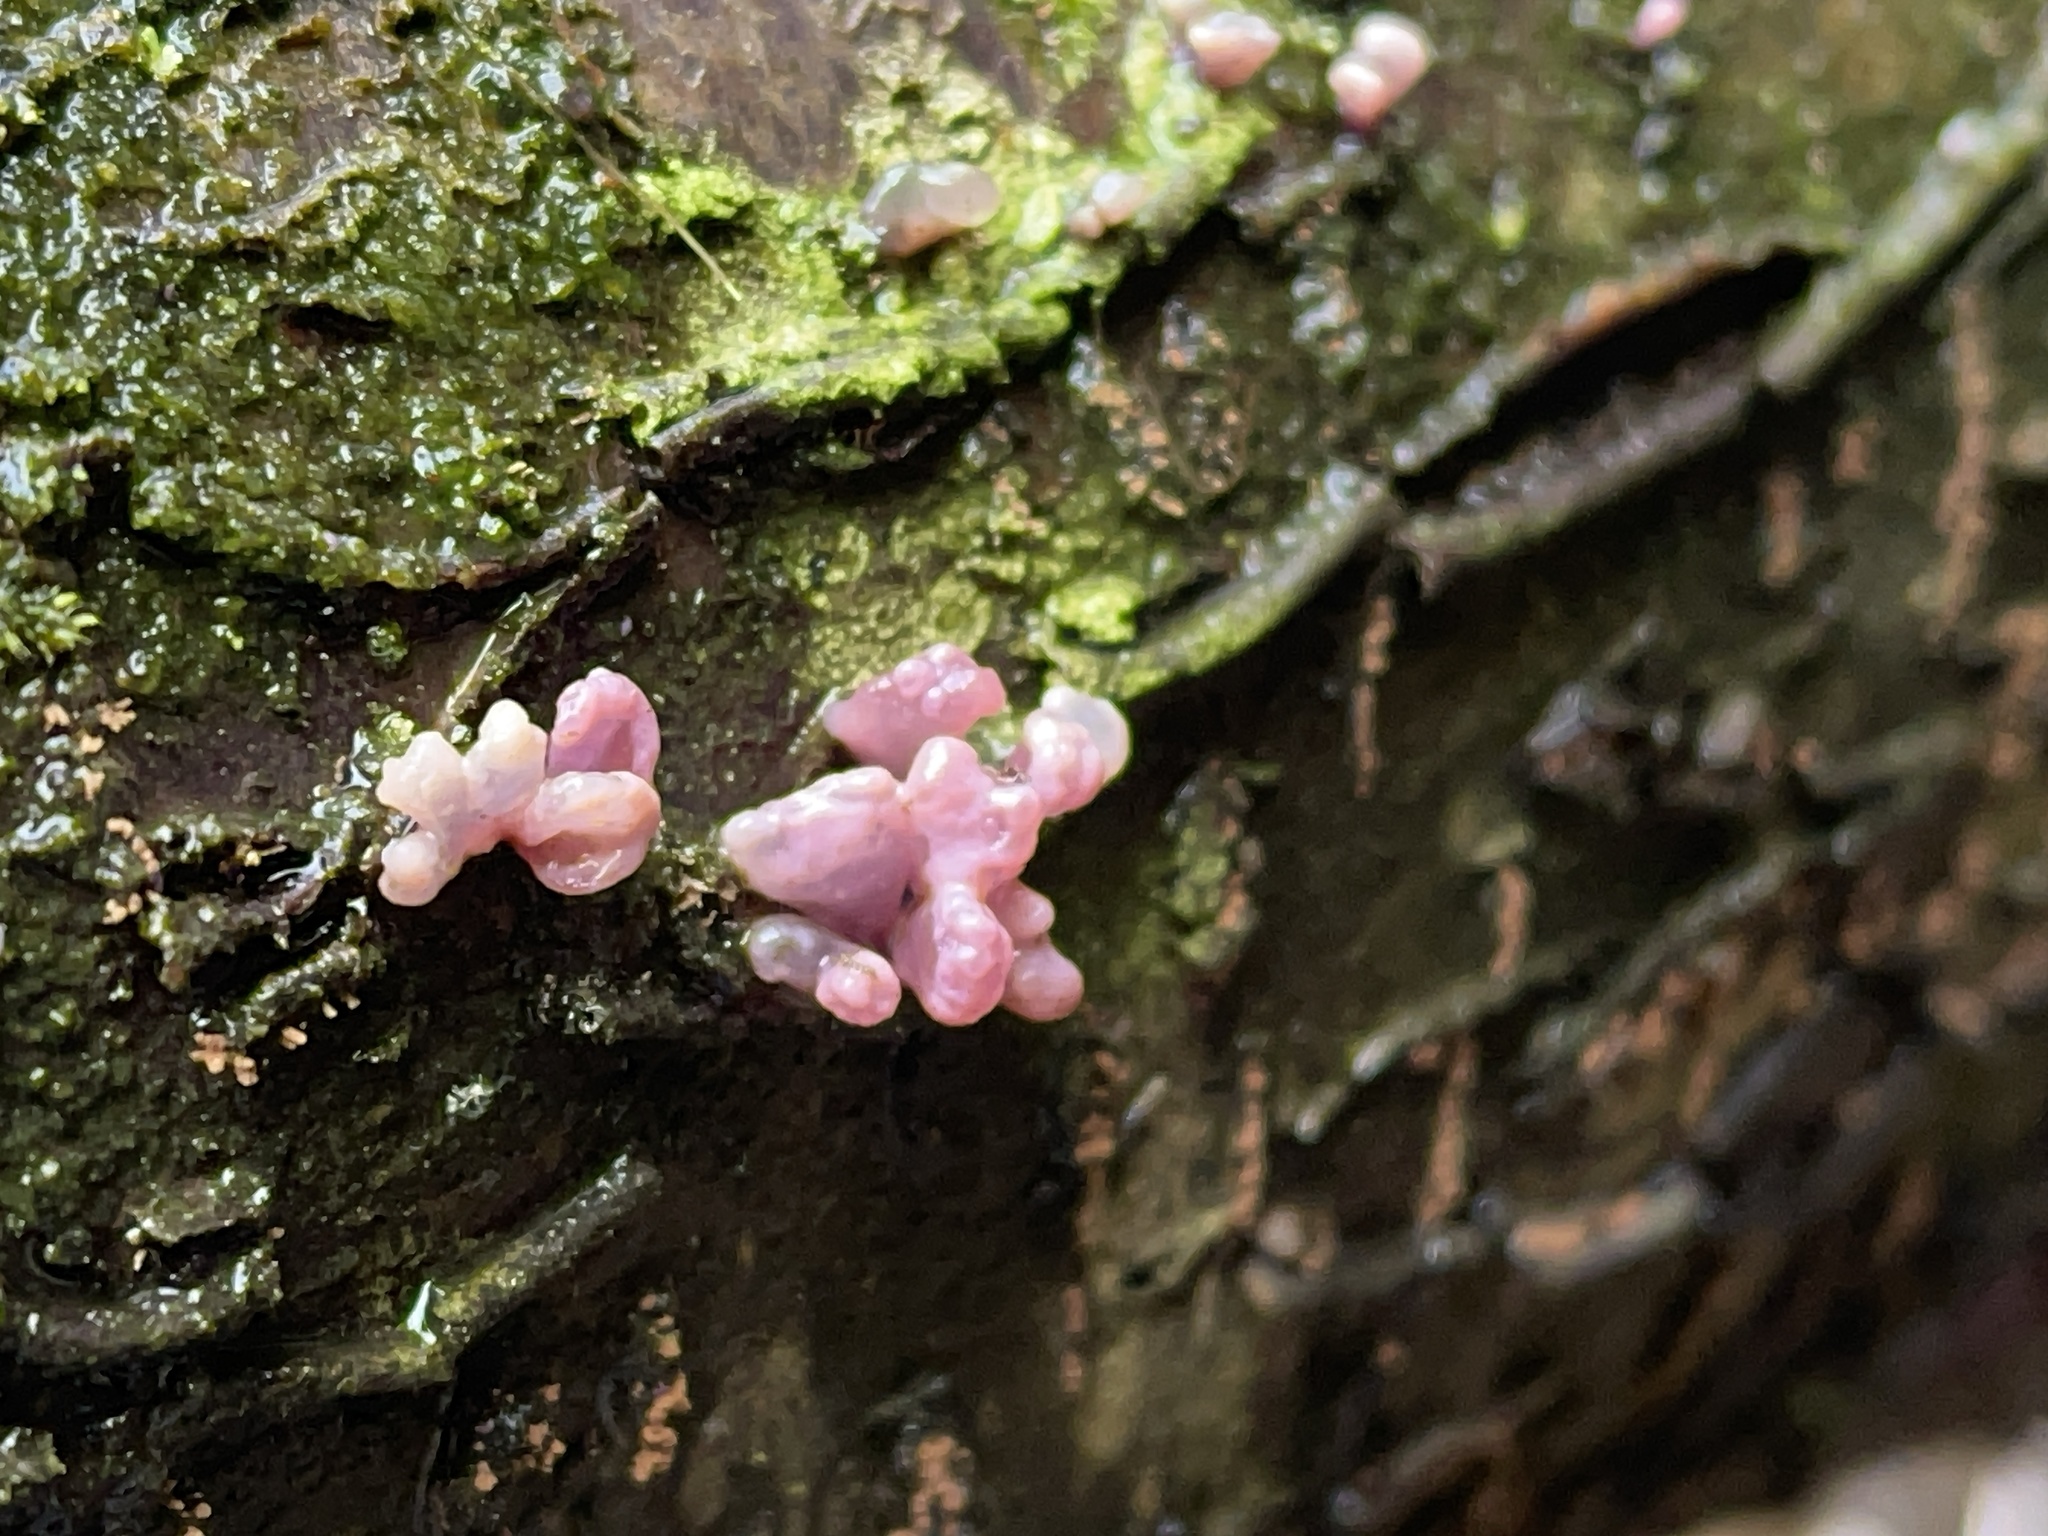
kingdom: Fungi
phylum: Ascomycota
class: Leotiomycetes
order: Helotiales
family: Gelatinodiscaceae
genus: Ascocoryne
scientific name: Ascocoryne sarcoides
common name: Purple jellydisc
